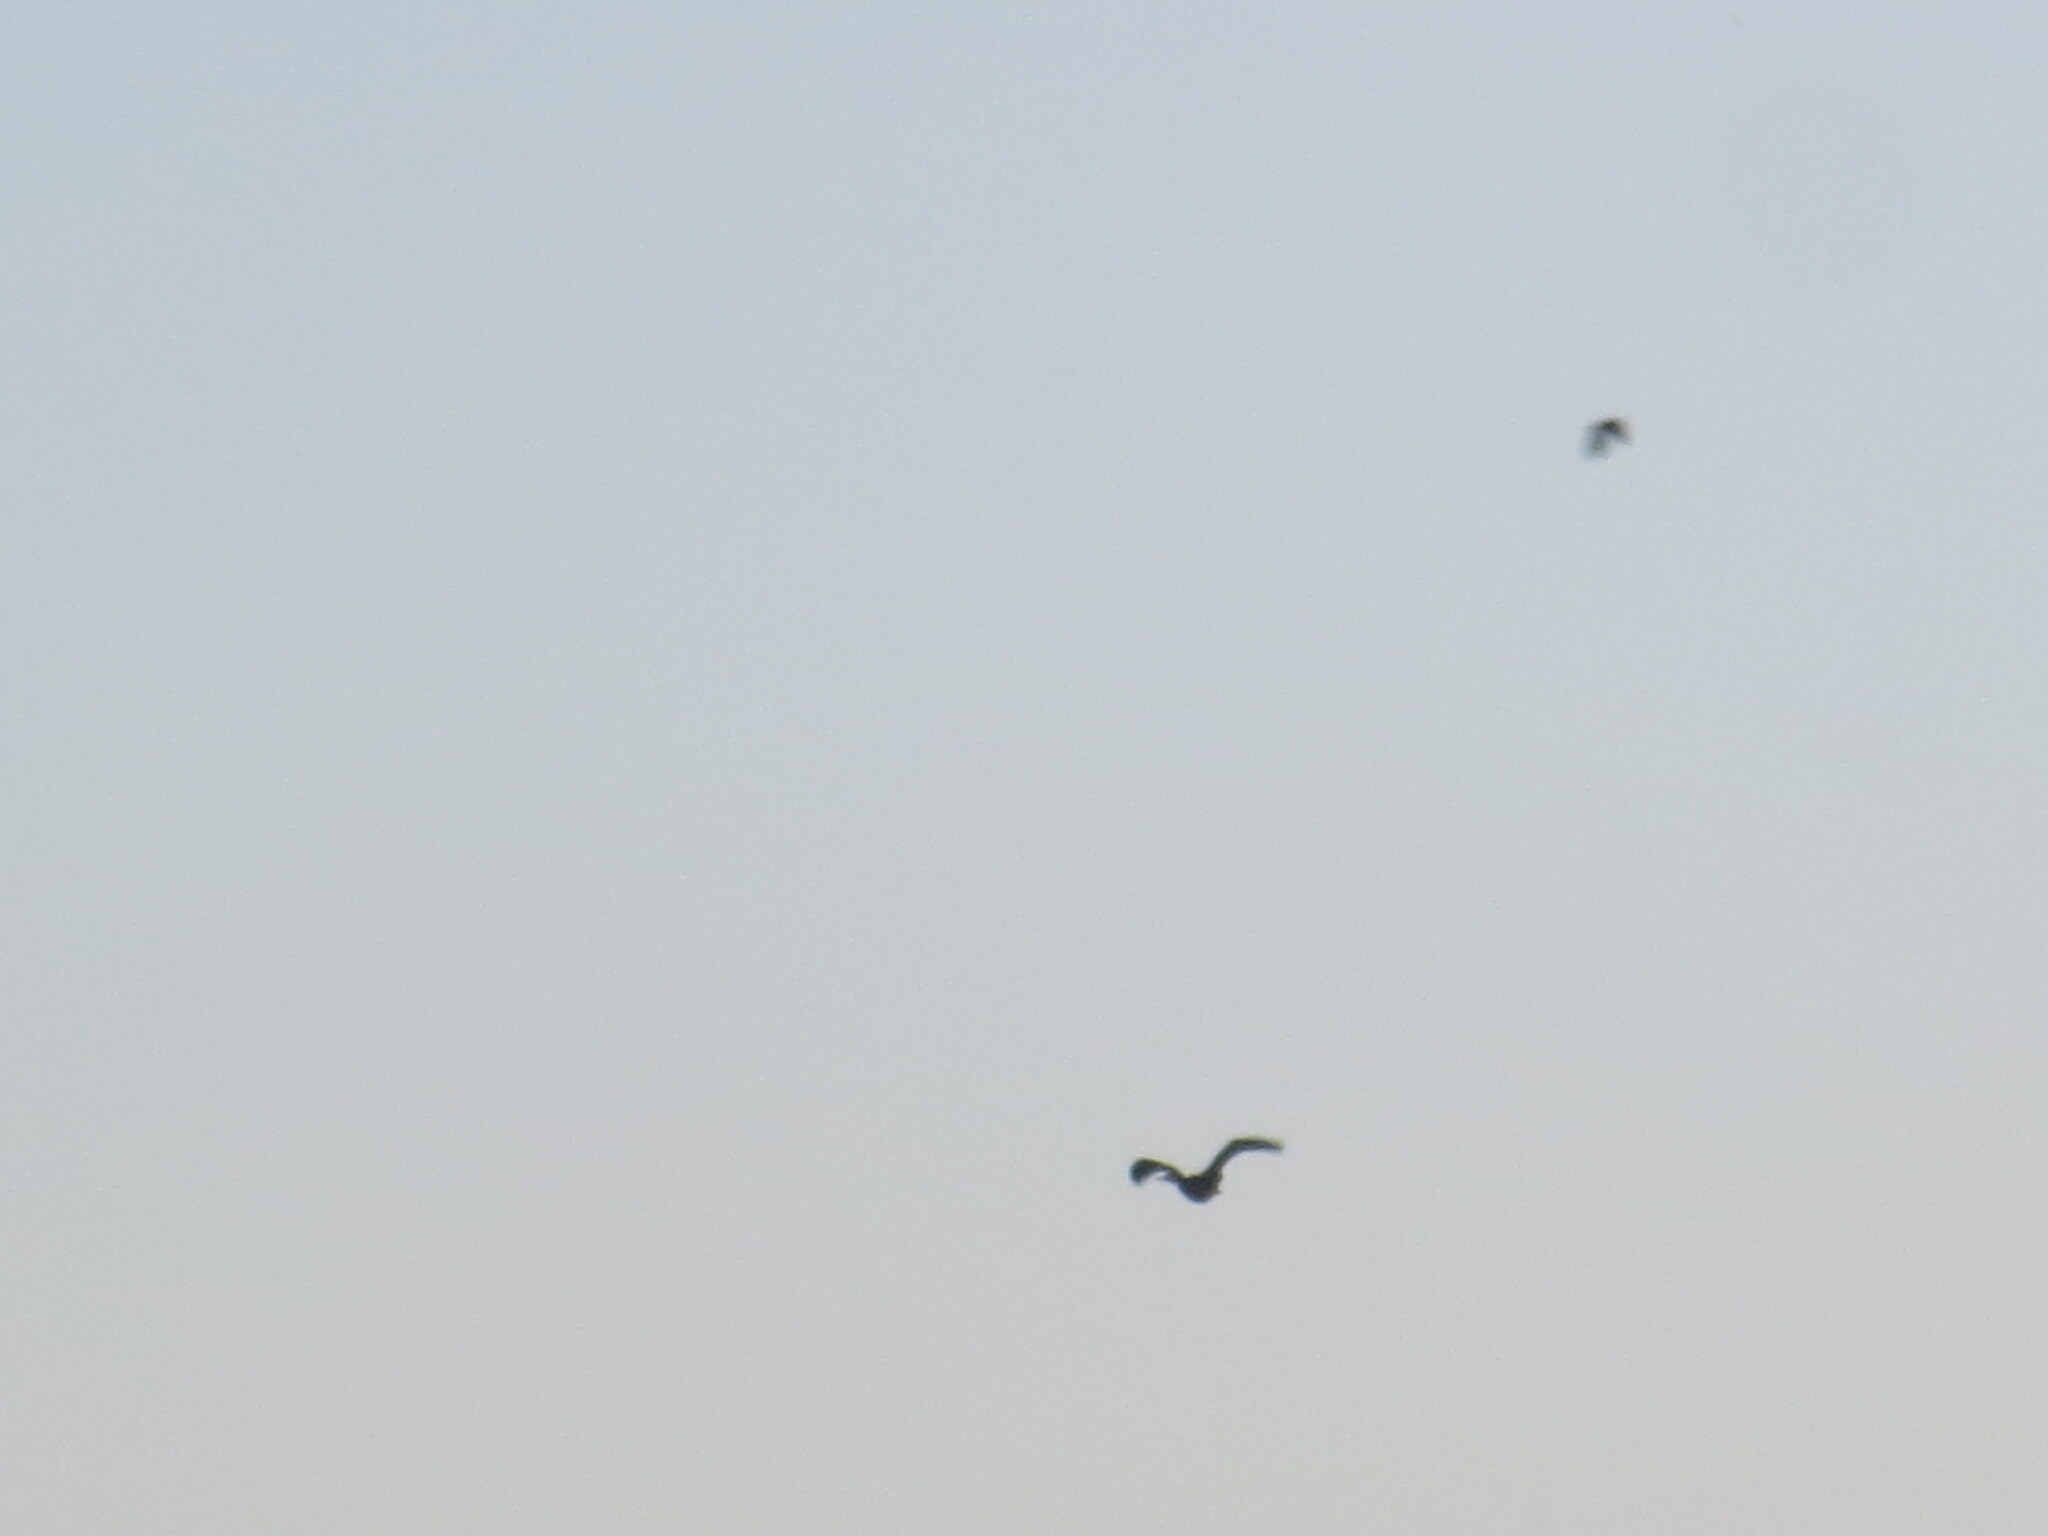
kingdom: Animalia
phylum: Chordata
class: Aves
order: Suliformes
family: Phalacrocoracidae
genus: Phalacrocorax
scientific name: Phalacrocorax auritus
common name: Double-crested cormorant
